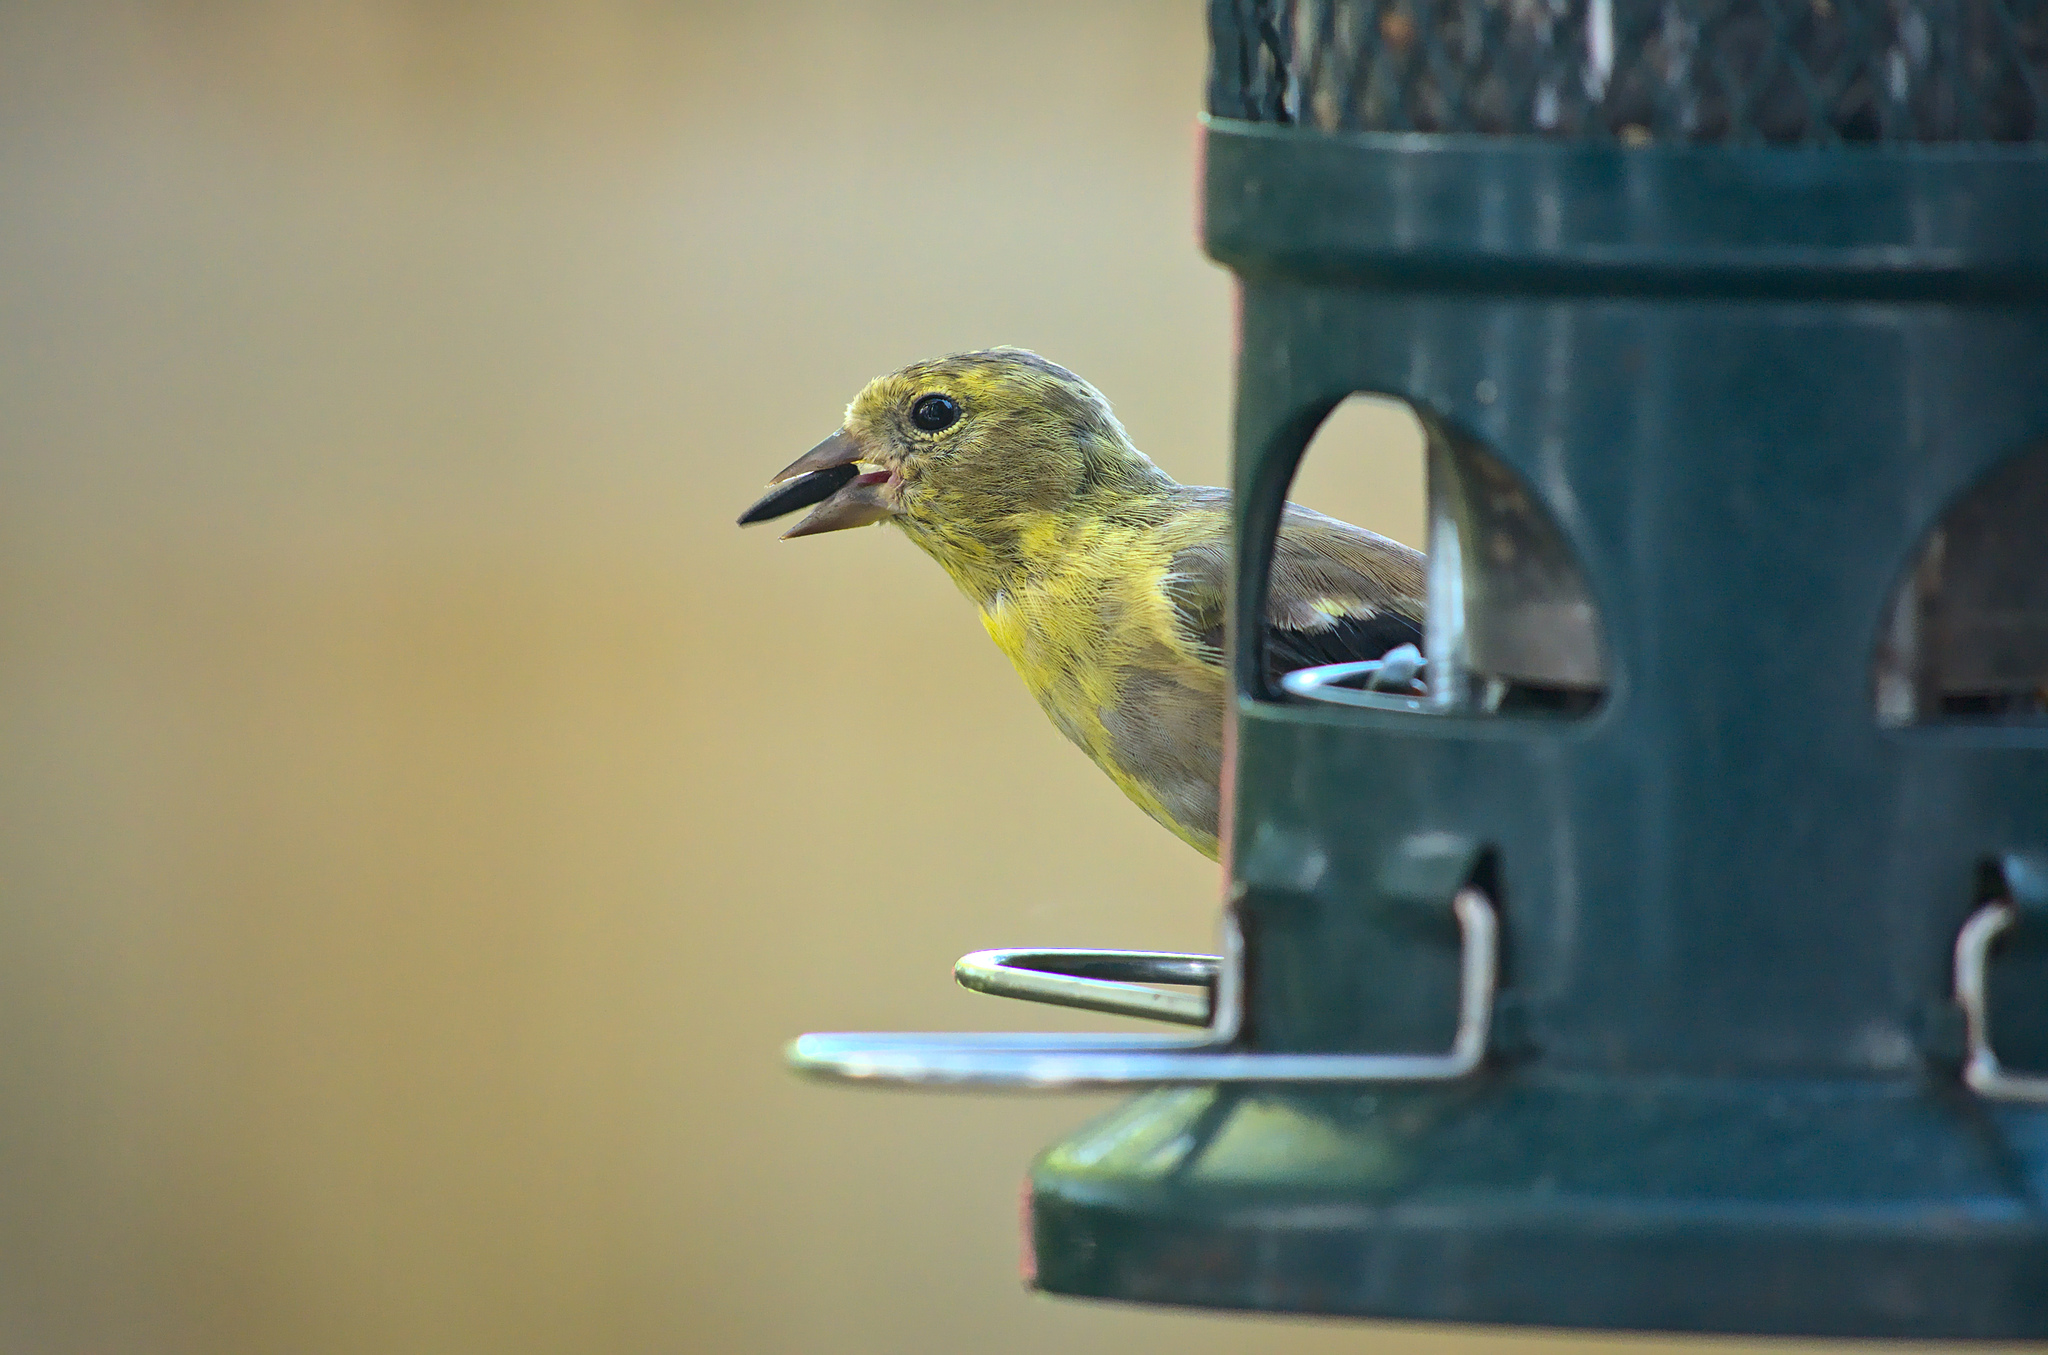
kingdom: Animalia
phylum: Chordata
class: Aves
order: Passeriformes
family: Fringillidae
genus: Spinus
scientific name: Spinus tristis
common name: American goldfinch
